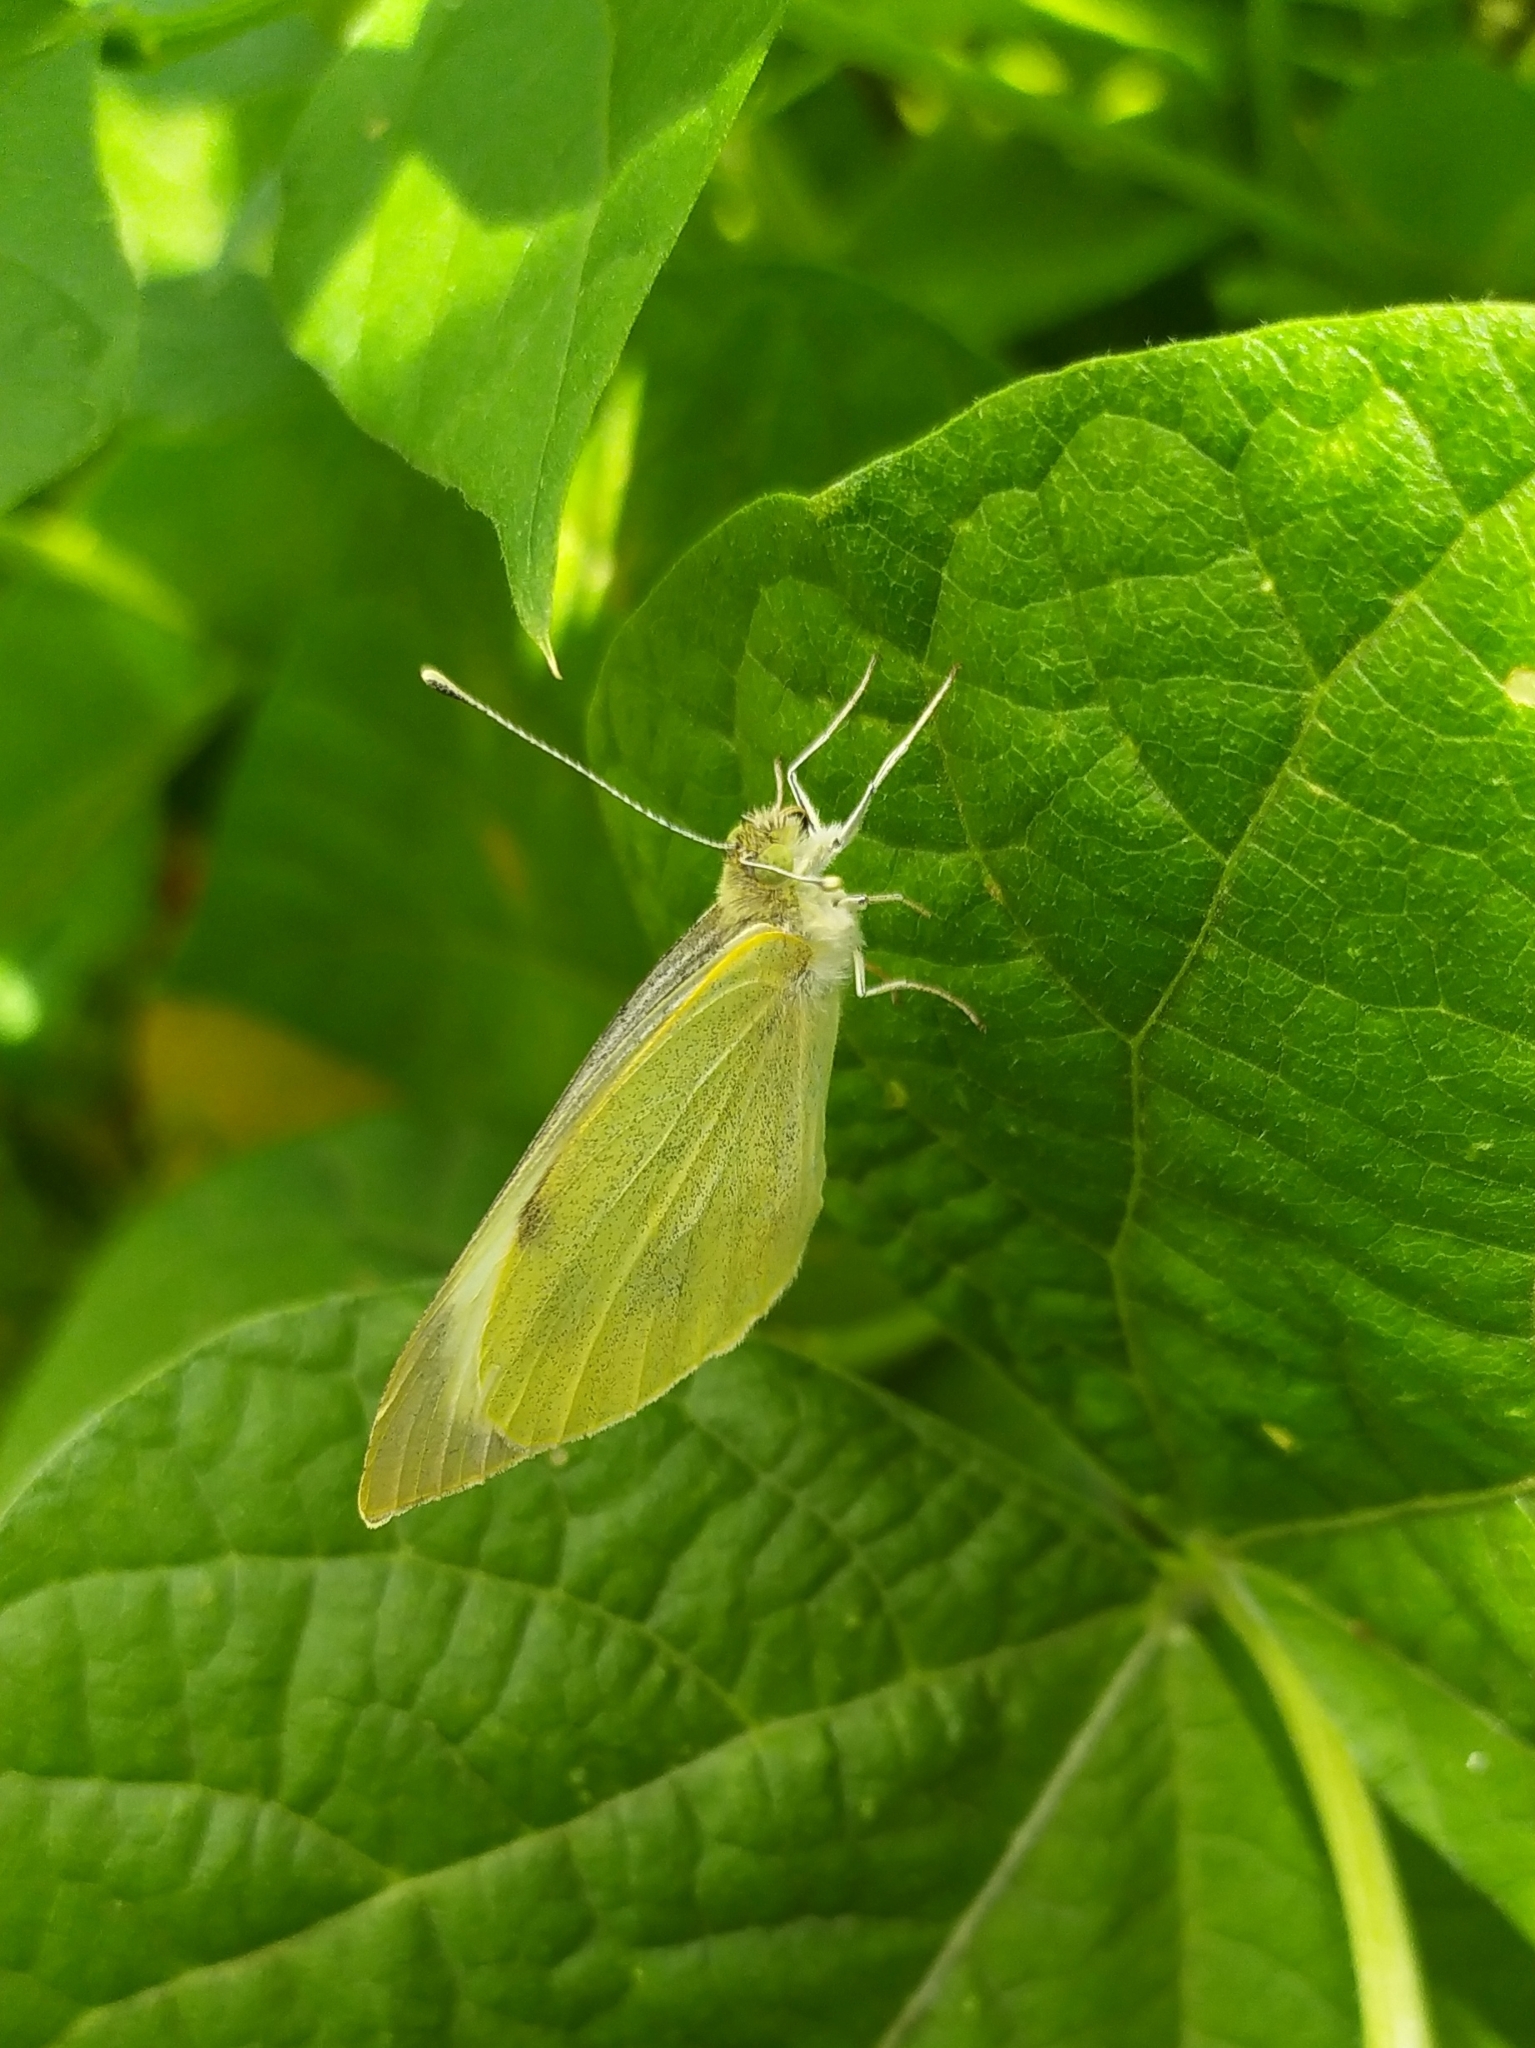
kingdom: Animalia
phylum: Arthropoda
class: Insecta
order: Lepidoptera
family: Pieridae
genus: Pieris
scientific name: Pieris brassicae
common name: Large white
